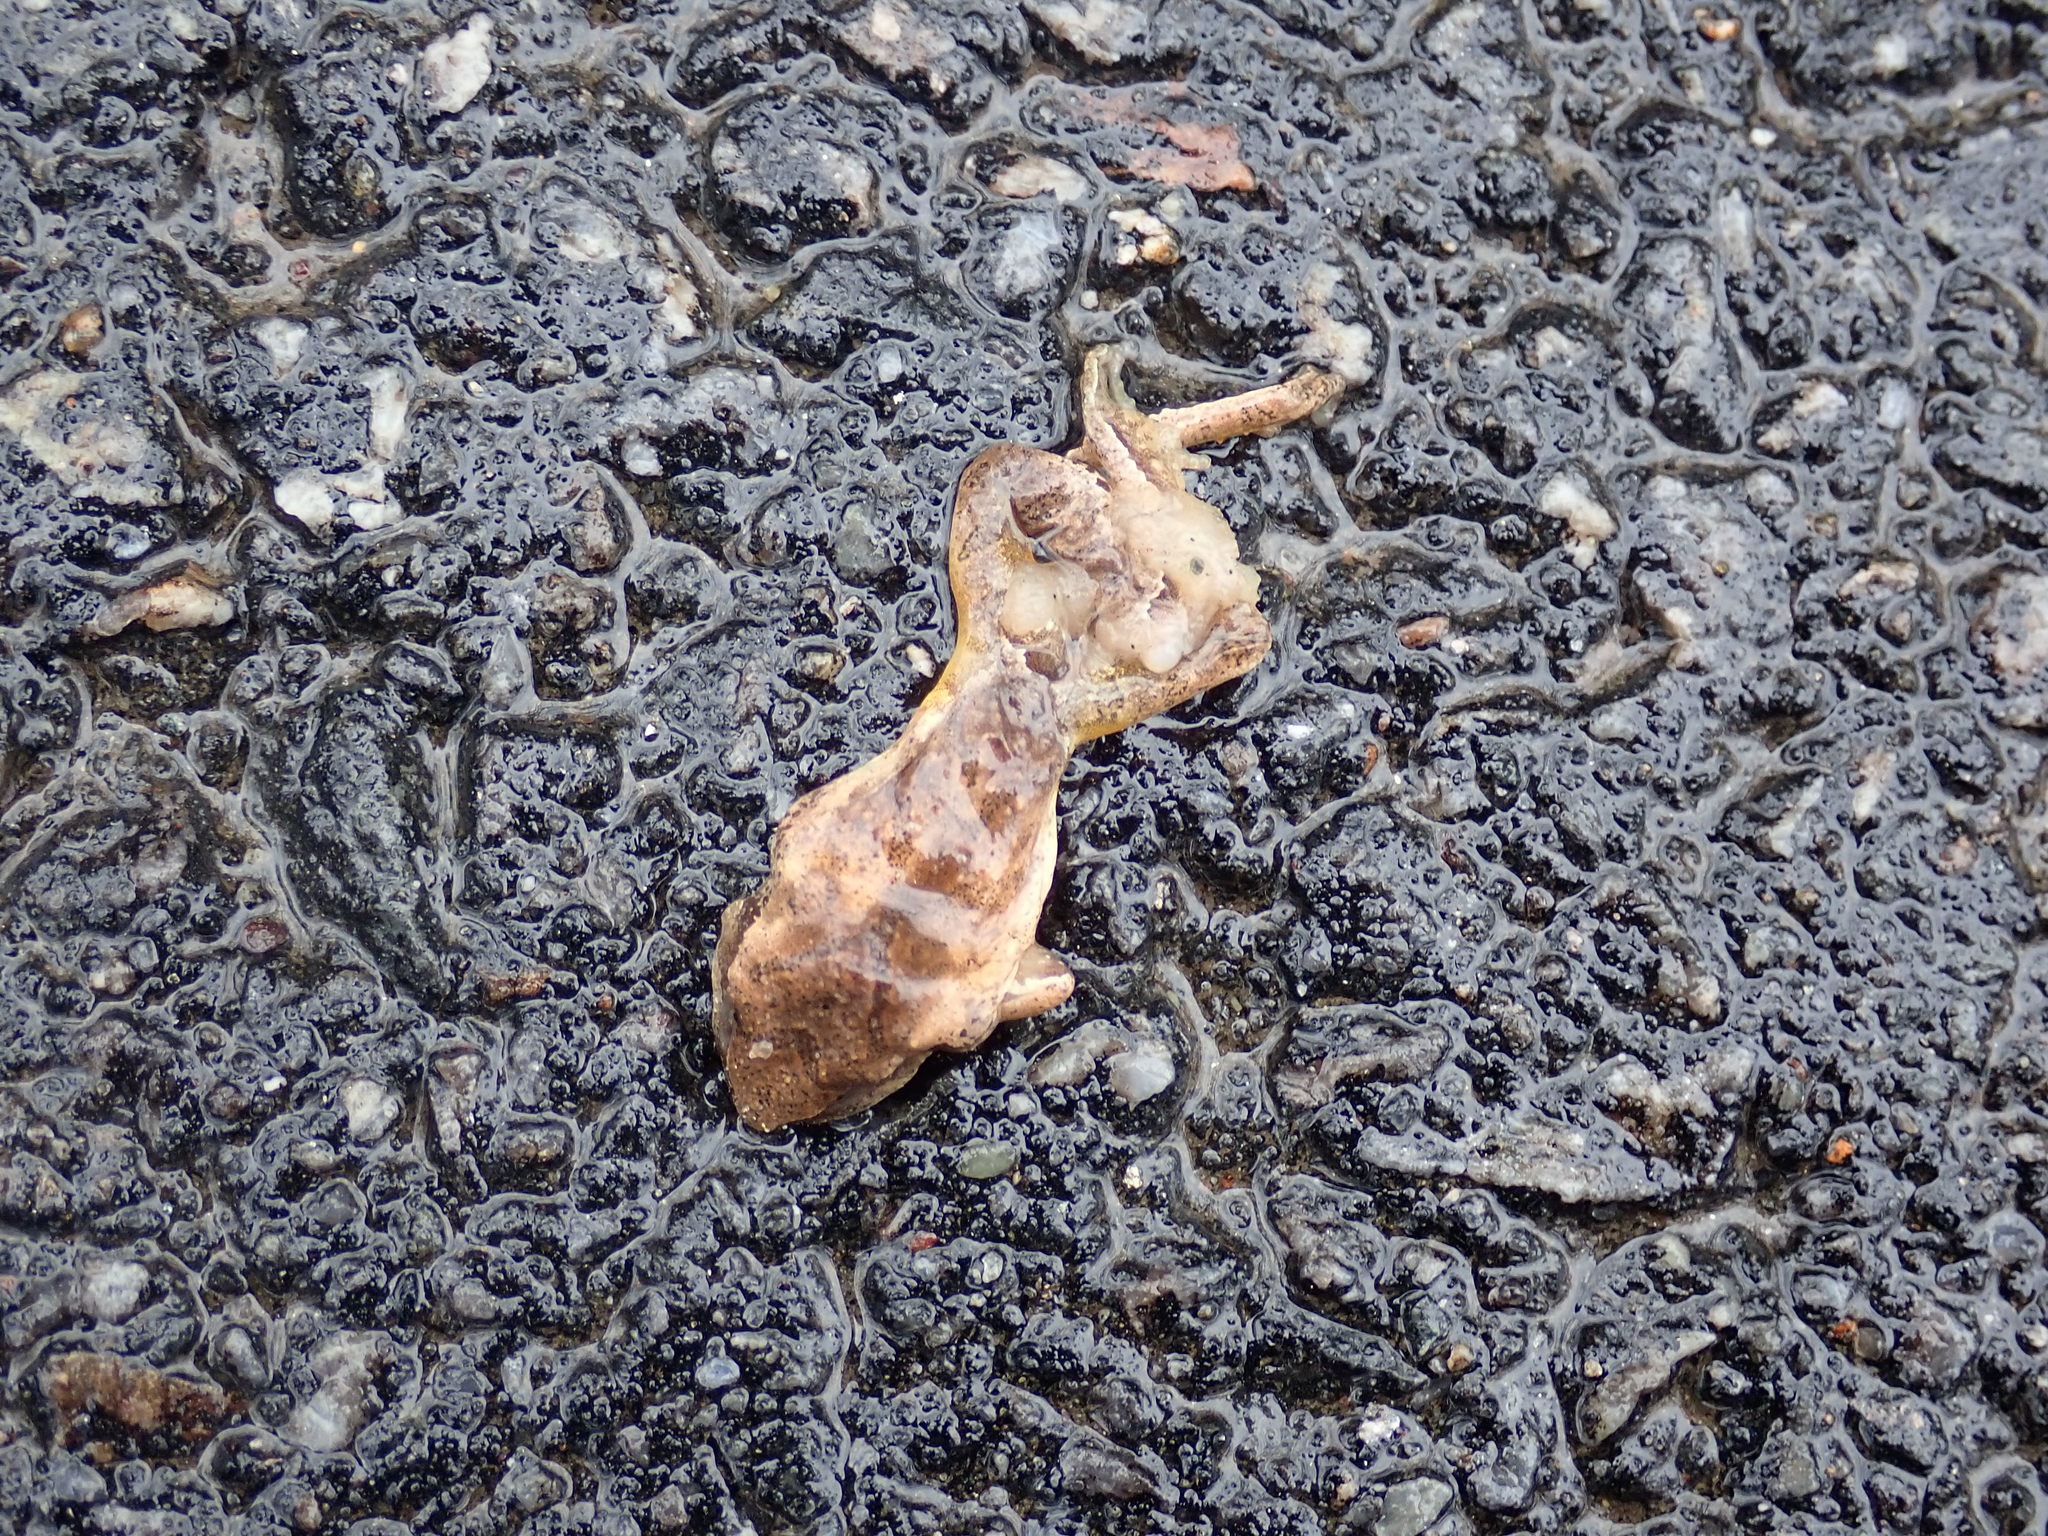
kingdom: Animalia
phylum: Chordata
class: Amphibia
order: Anura
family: Hylidae
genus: Pseudacris
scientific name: Pseudacris crucifer
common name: Spring peeper
